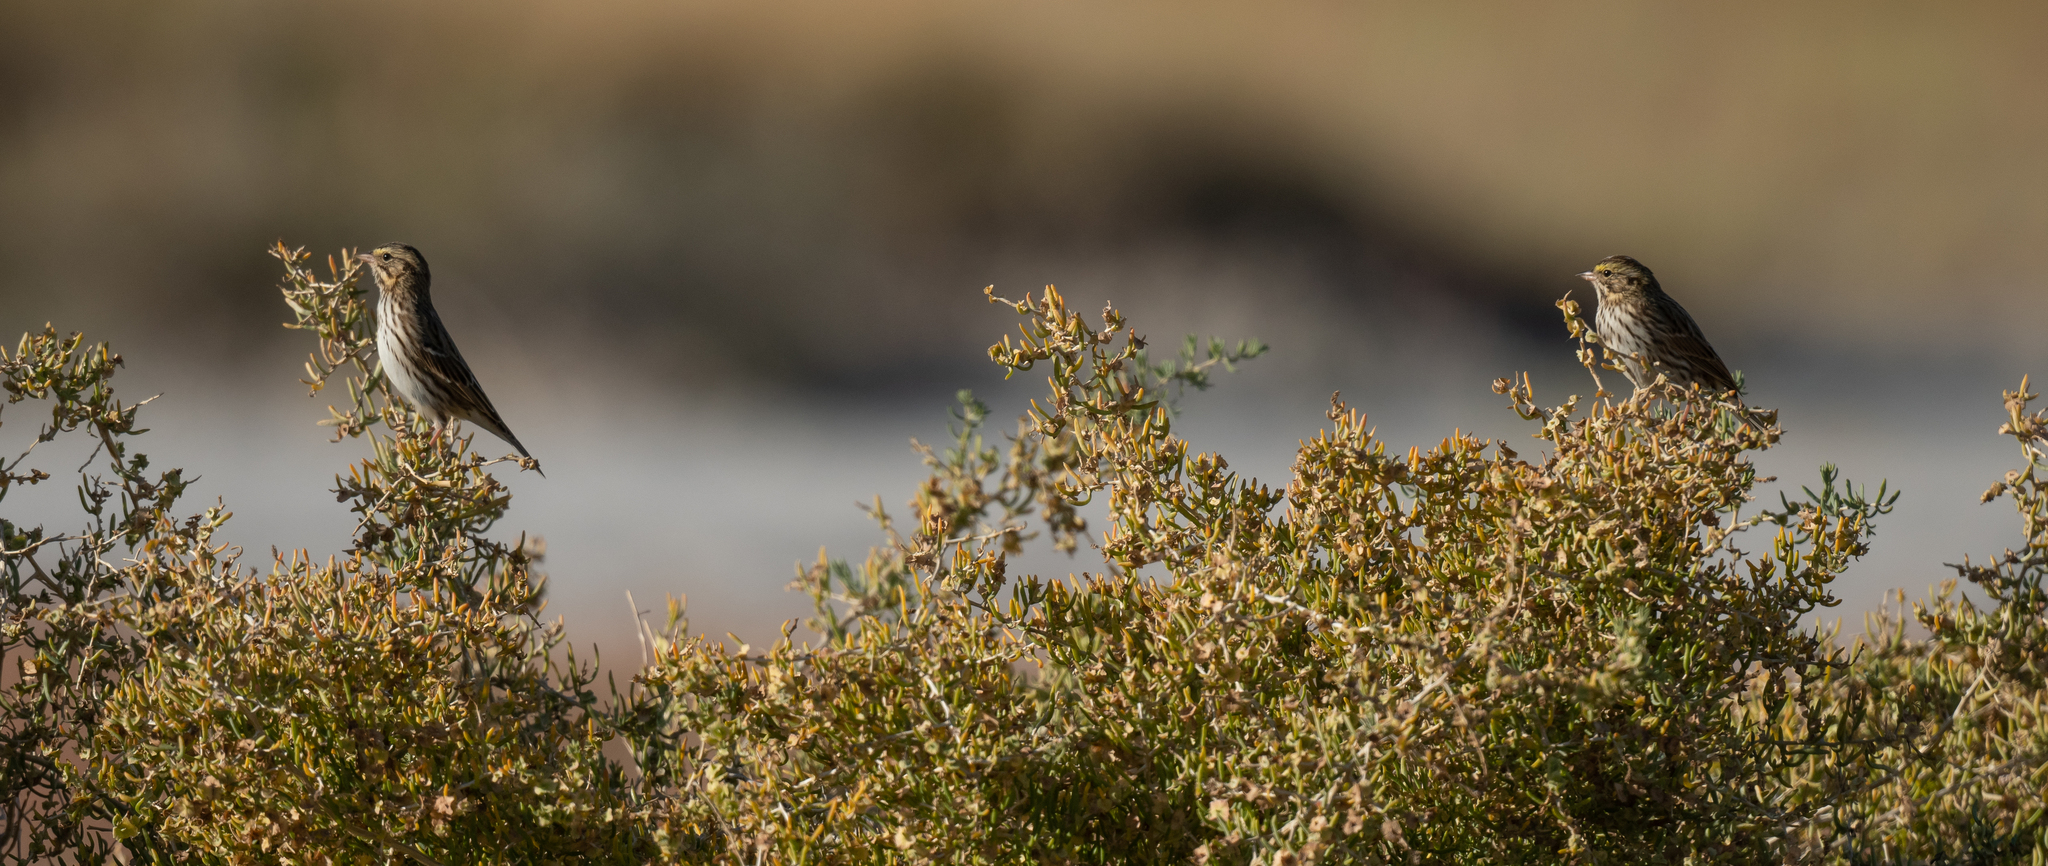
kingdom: Animalia
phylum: Chordata
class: Aves
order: Passeriformes
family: Passerellidae
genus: Passerculus
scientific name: Passerculus sandwichensis
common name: Savannah sparrow
